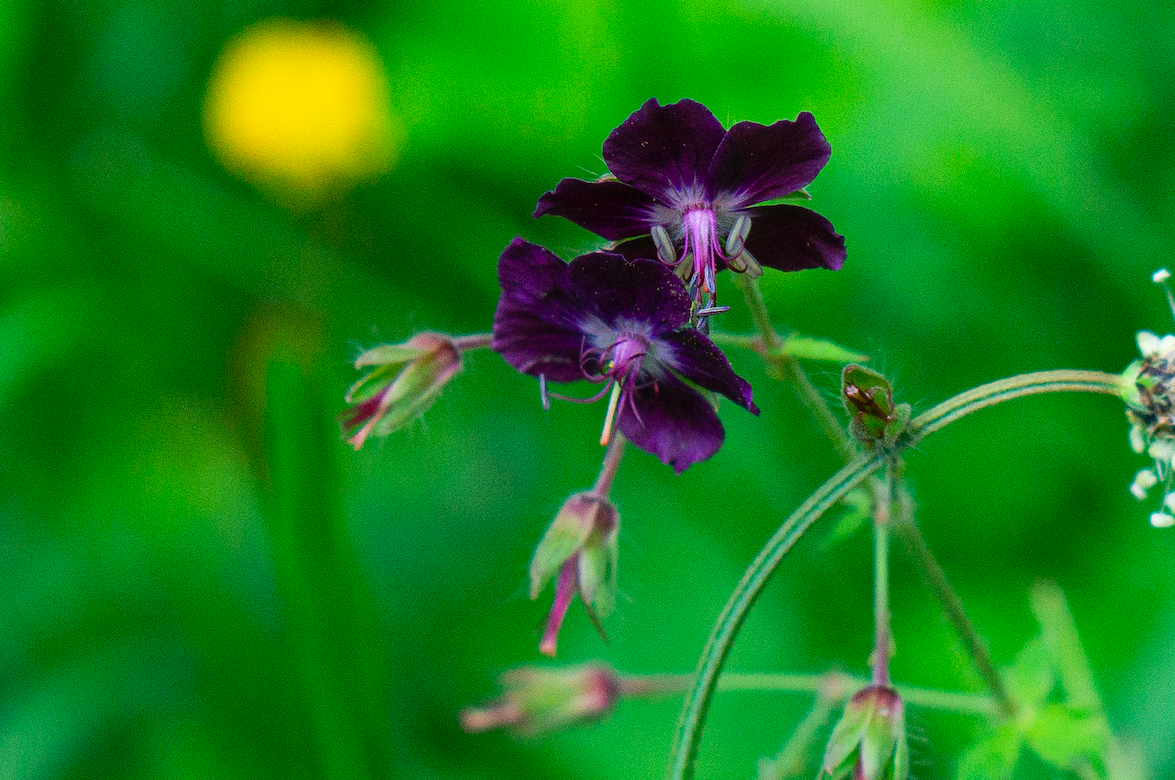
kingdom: Plantae
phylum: Tracheophyta
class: Magnoliopsida
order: Geraniales
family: Geraniaceae
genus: Geranium
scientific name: Geranium phaeum
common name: Dusky crane's-bill
